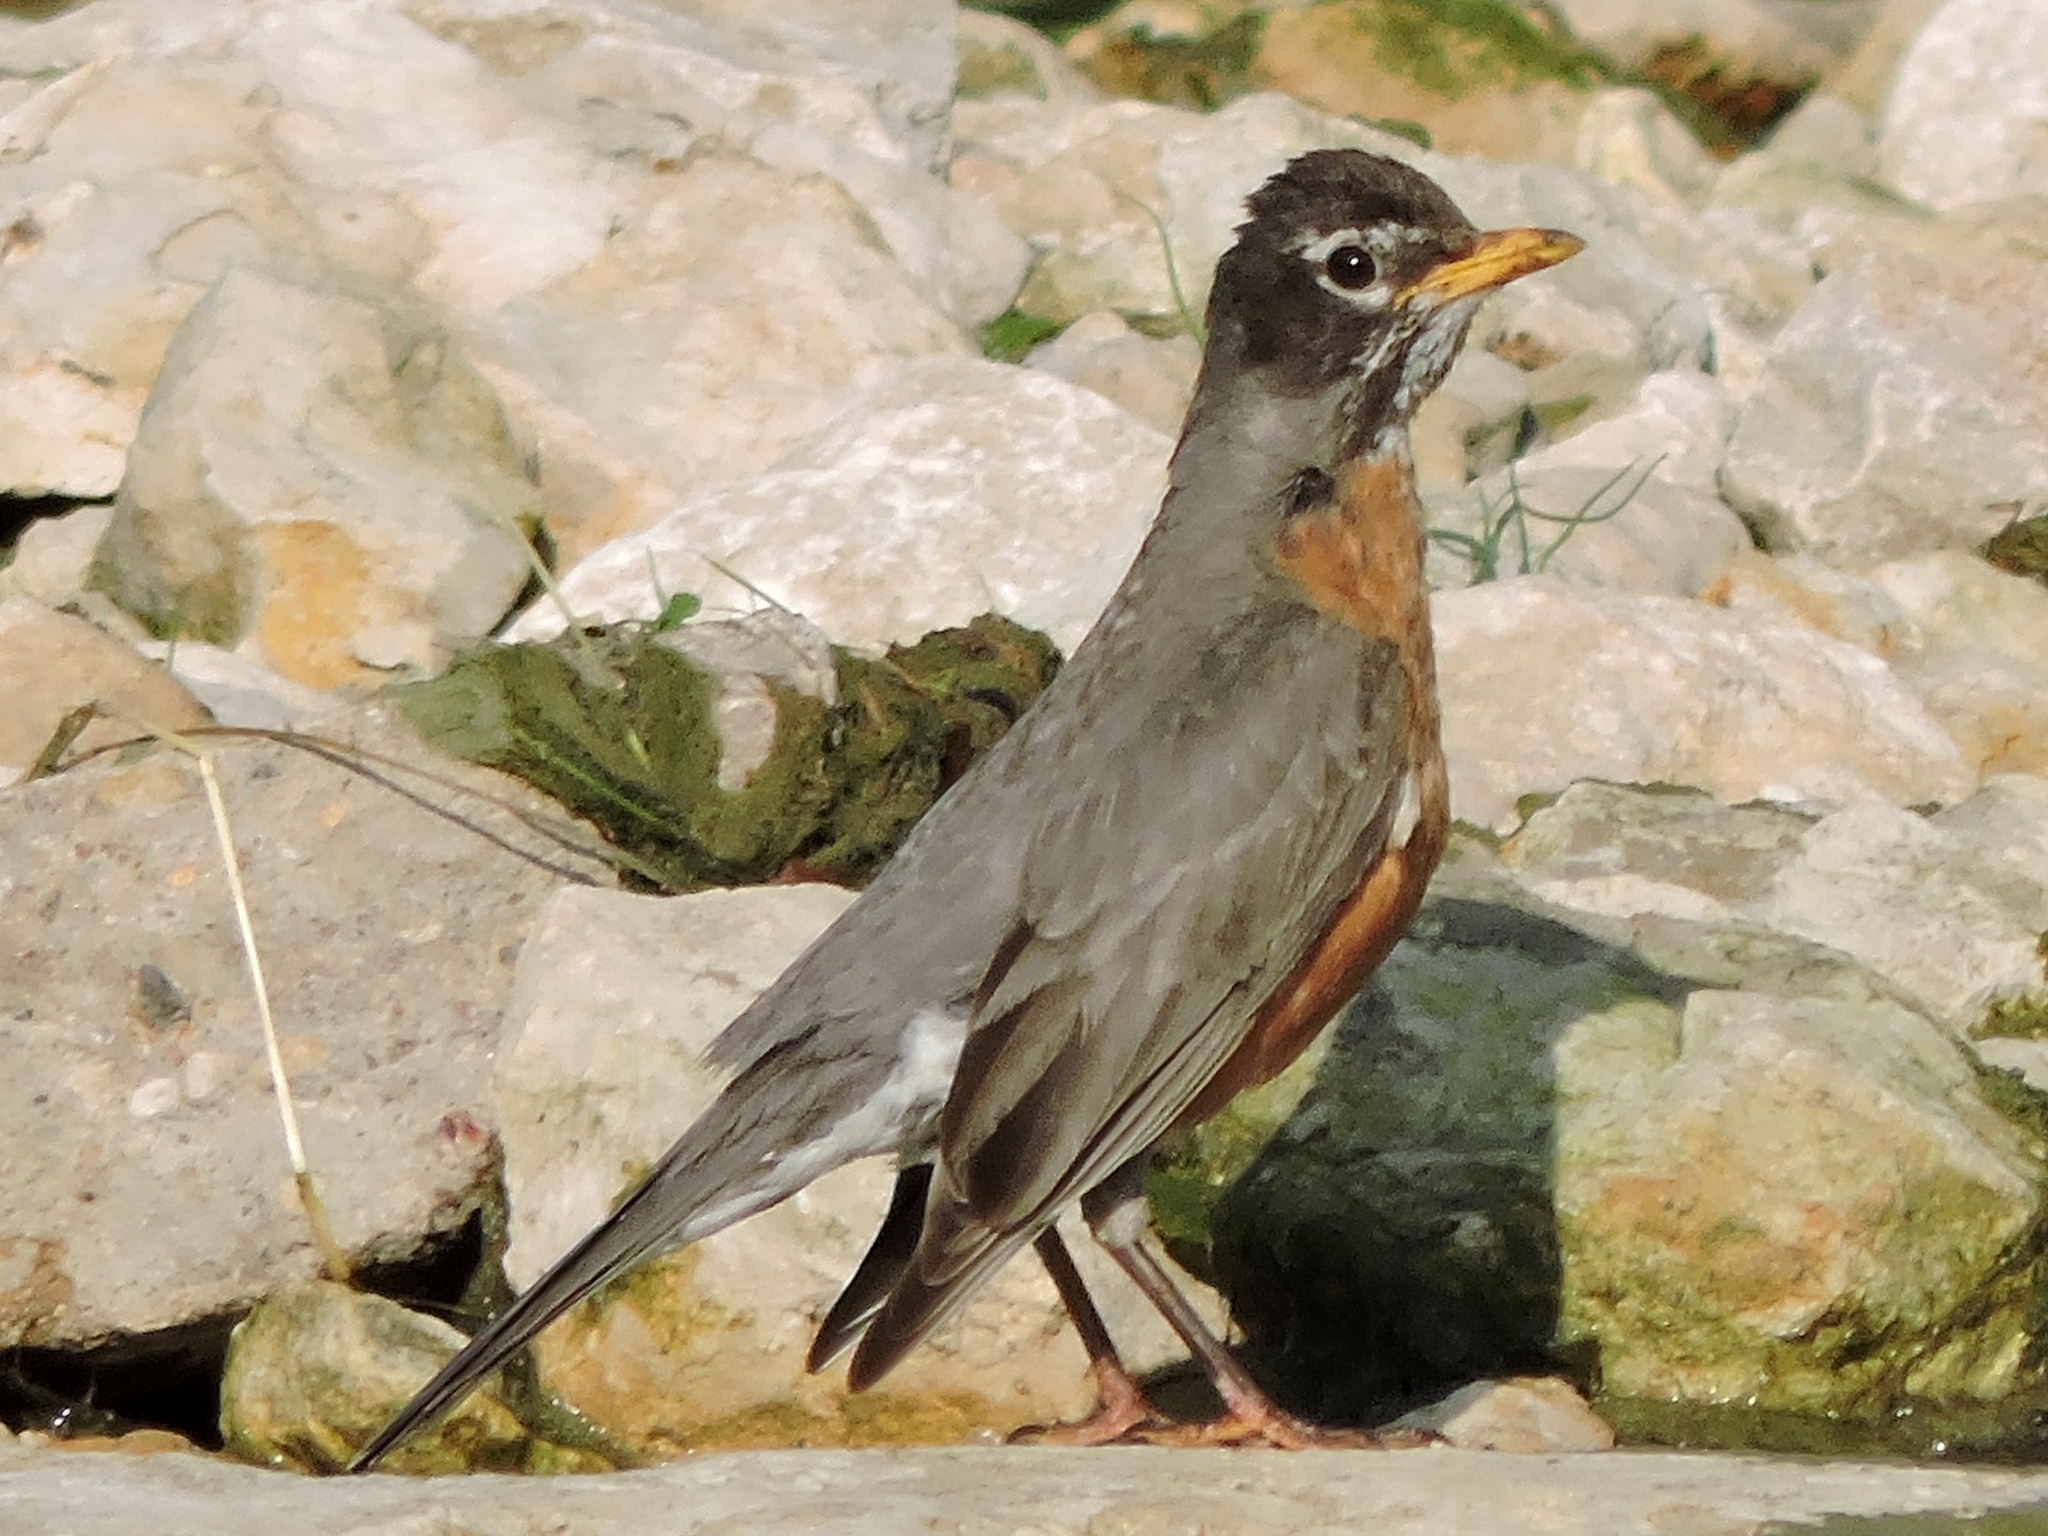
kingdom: Animalia
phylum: Chordata
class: Aves
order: Passeriformes
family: Turdidae
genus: Turdus
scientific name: Turdus migratorius
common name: American robin
